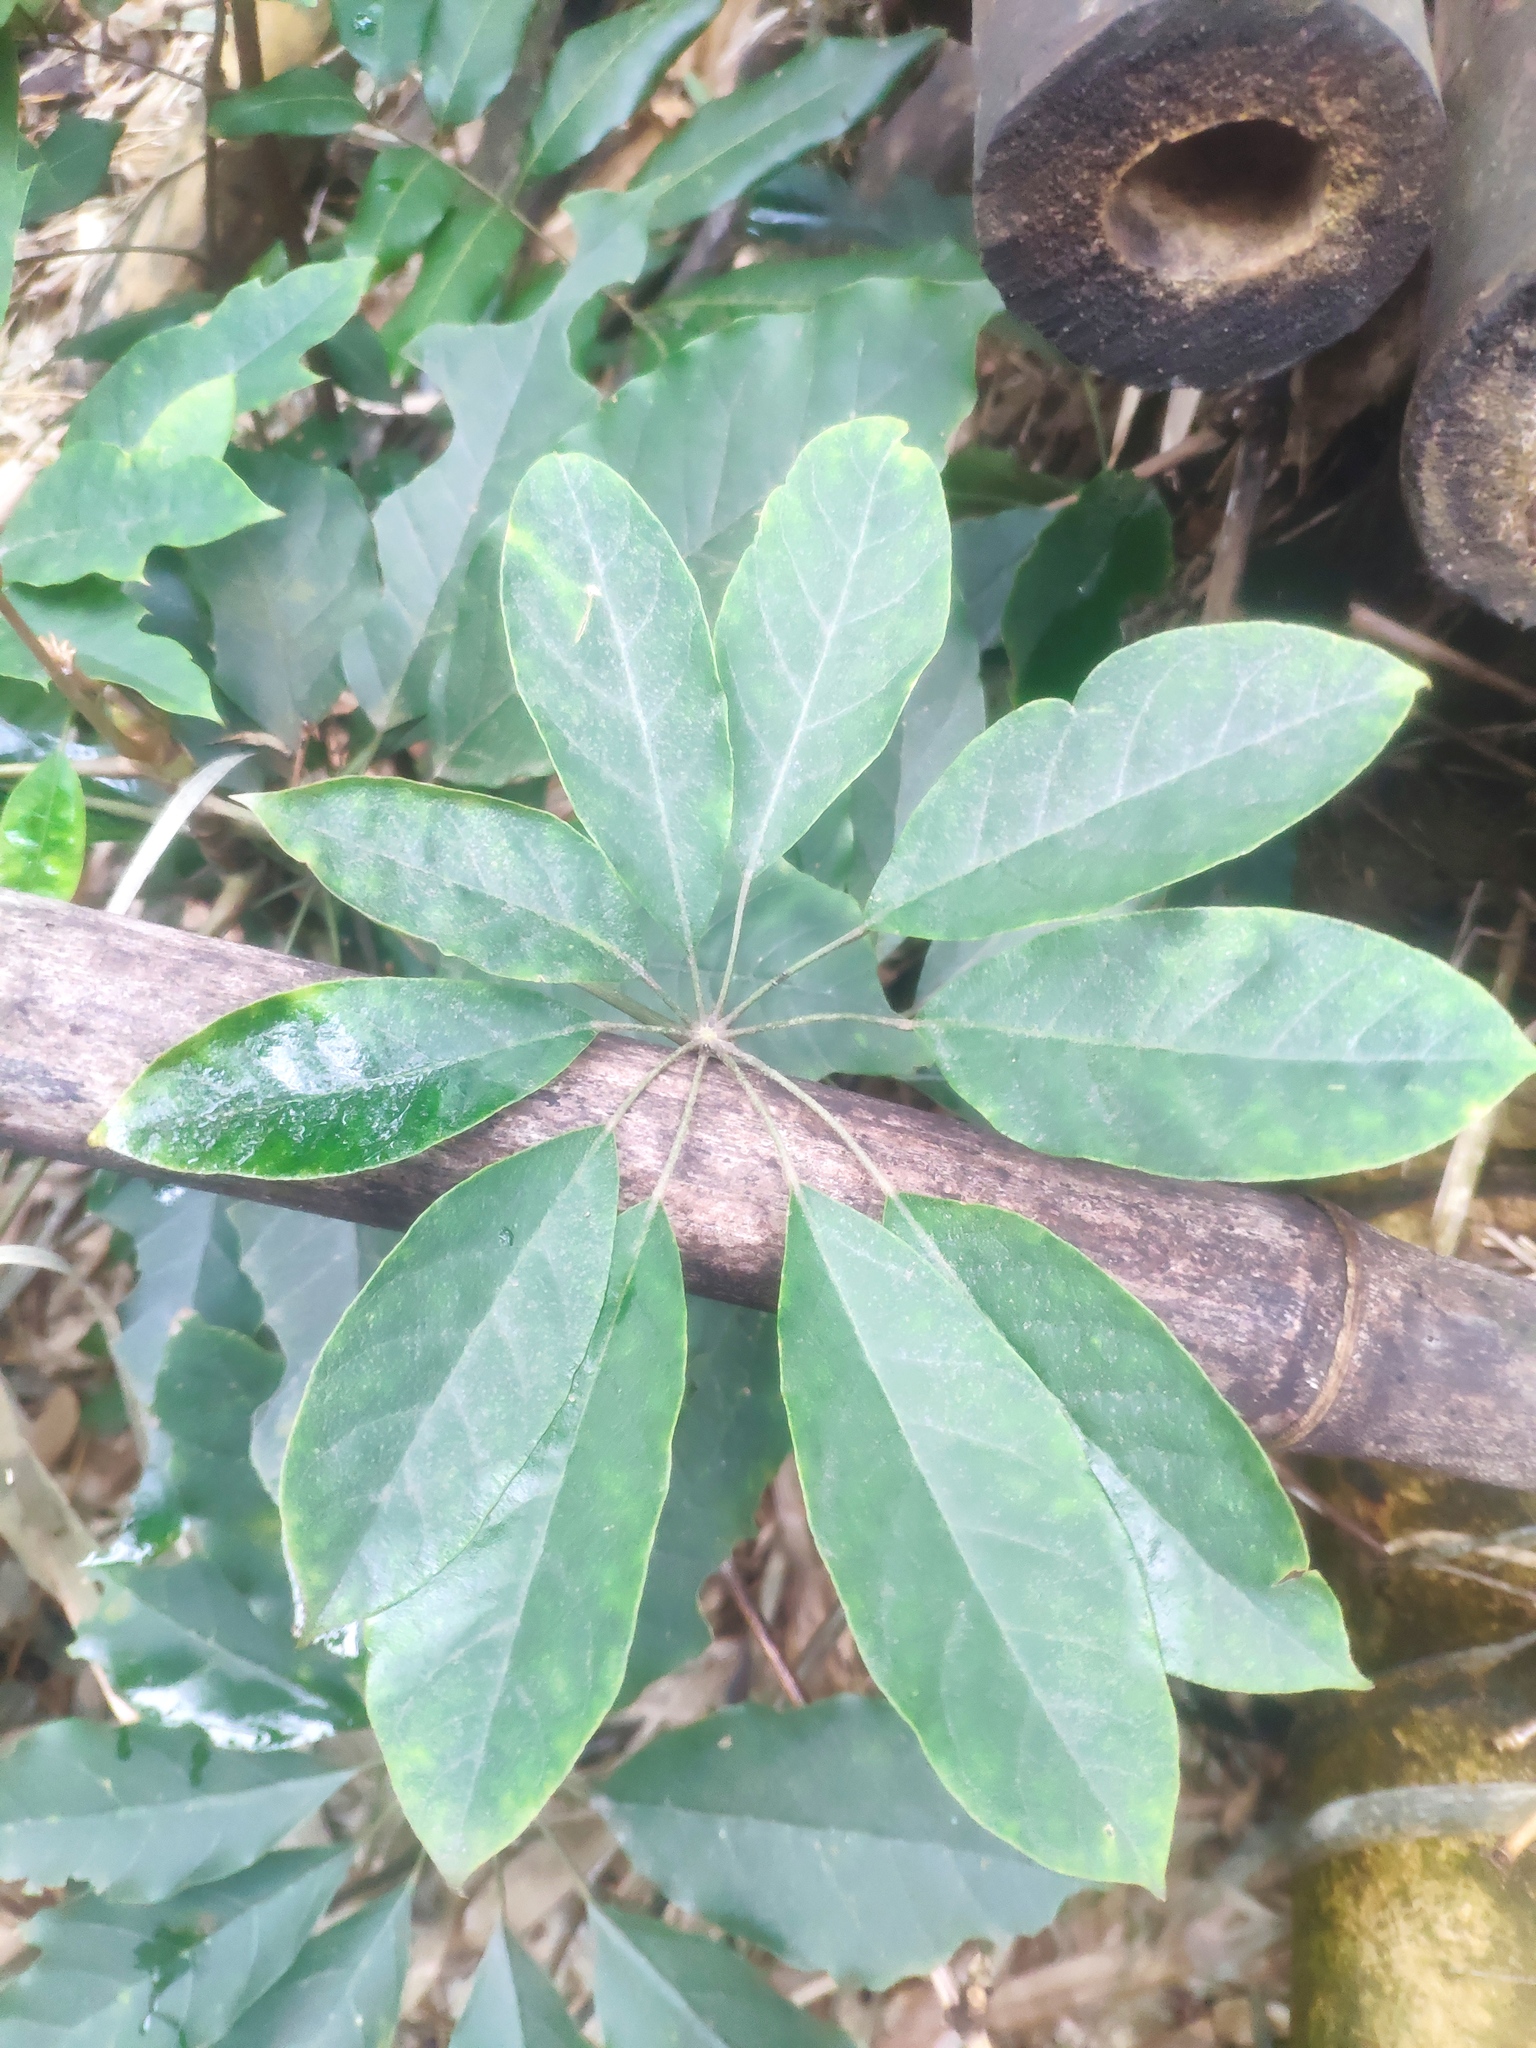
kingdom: Plantae
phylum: Tracheophyta
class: Magnoliopsida
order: Apiales
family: Araliaceae
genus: Heptapleurum
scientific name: Heptapleurum heptaphyllum
